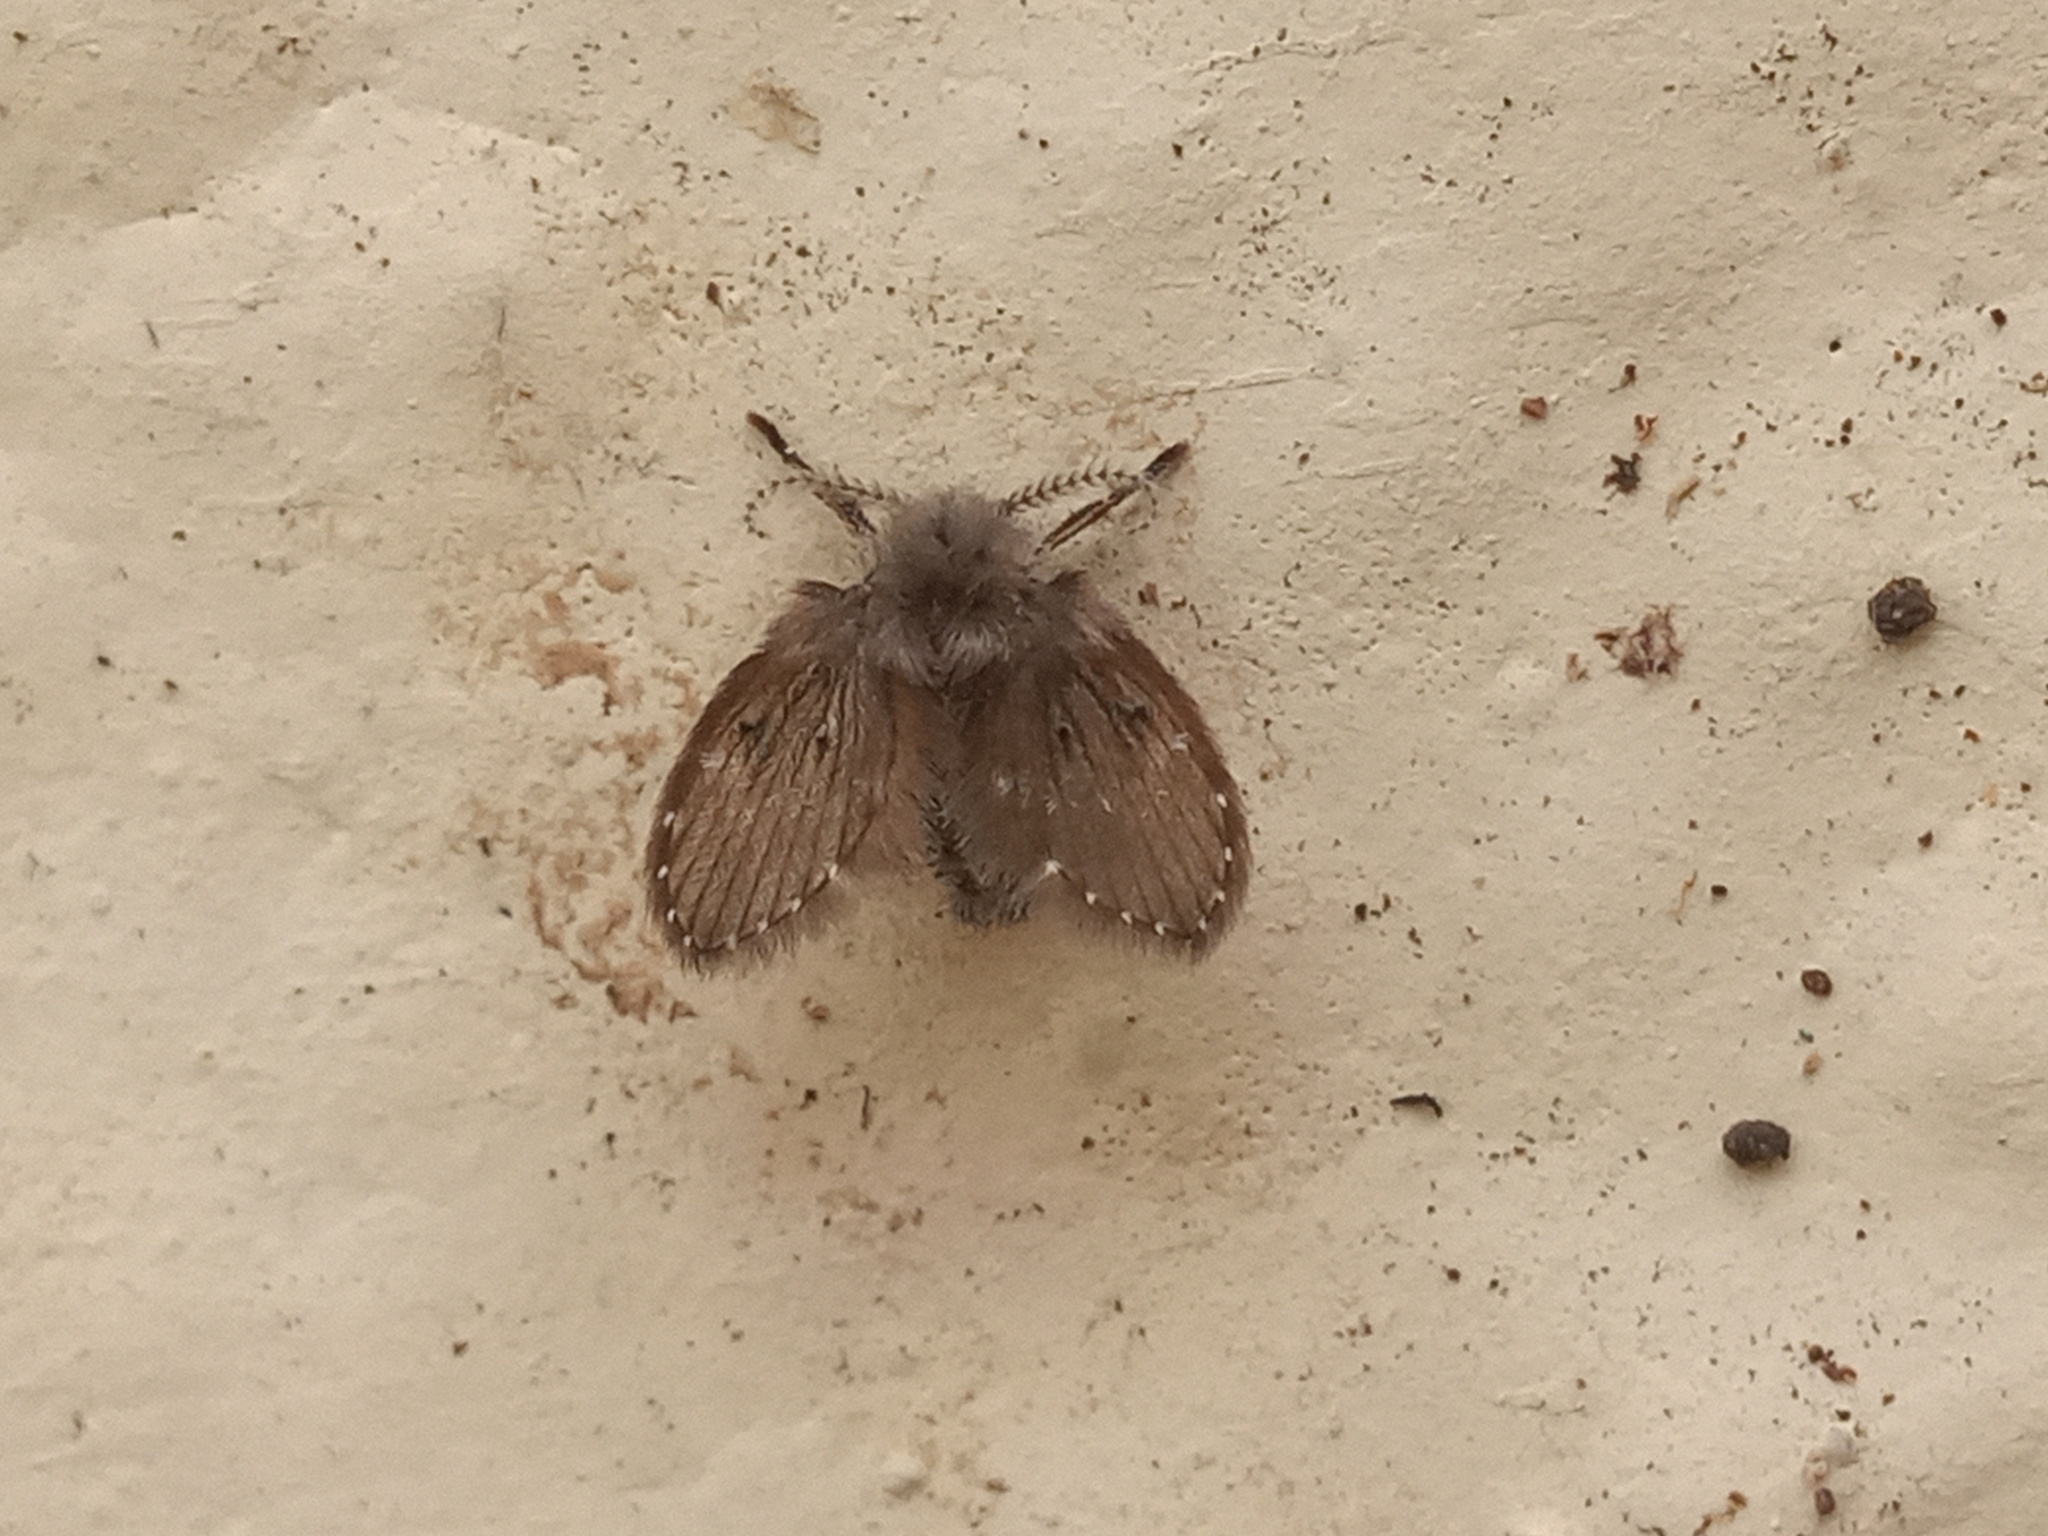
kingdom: Animalia
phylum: Arthropoda
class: Insecta
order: Diptera
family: Psychodidae
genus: Clogmia
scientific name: Clogmia albipunctatus
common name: White-spotted moth fly
